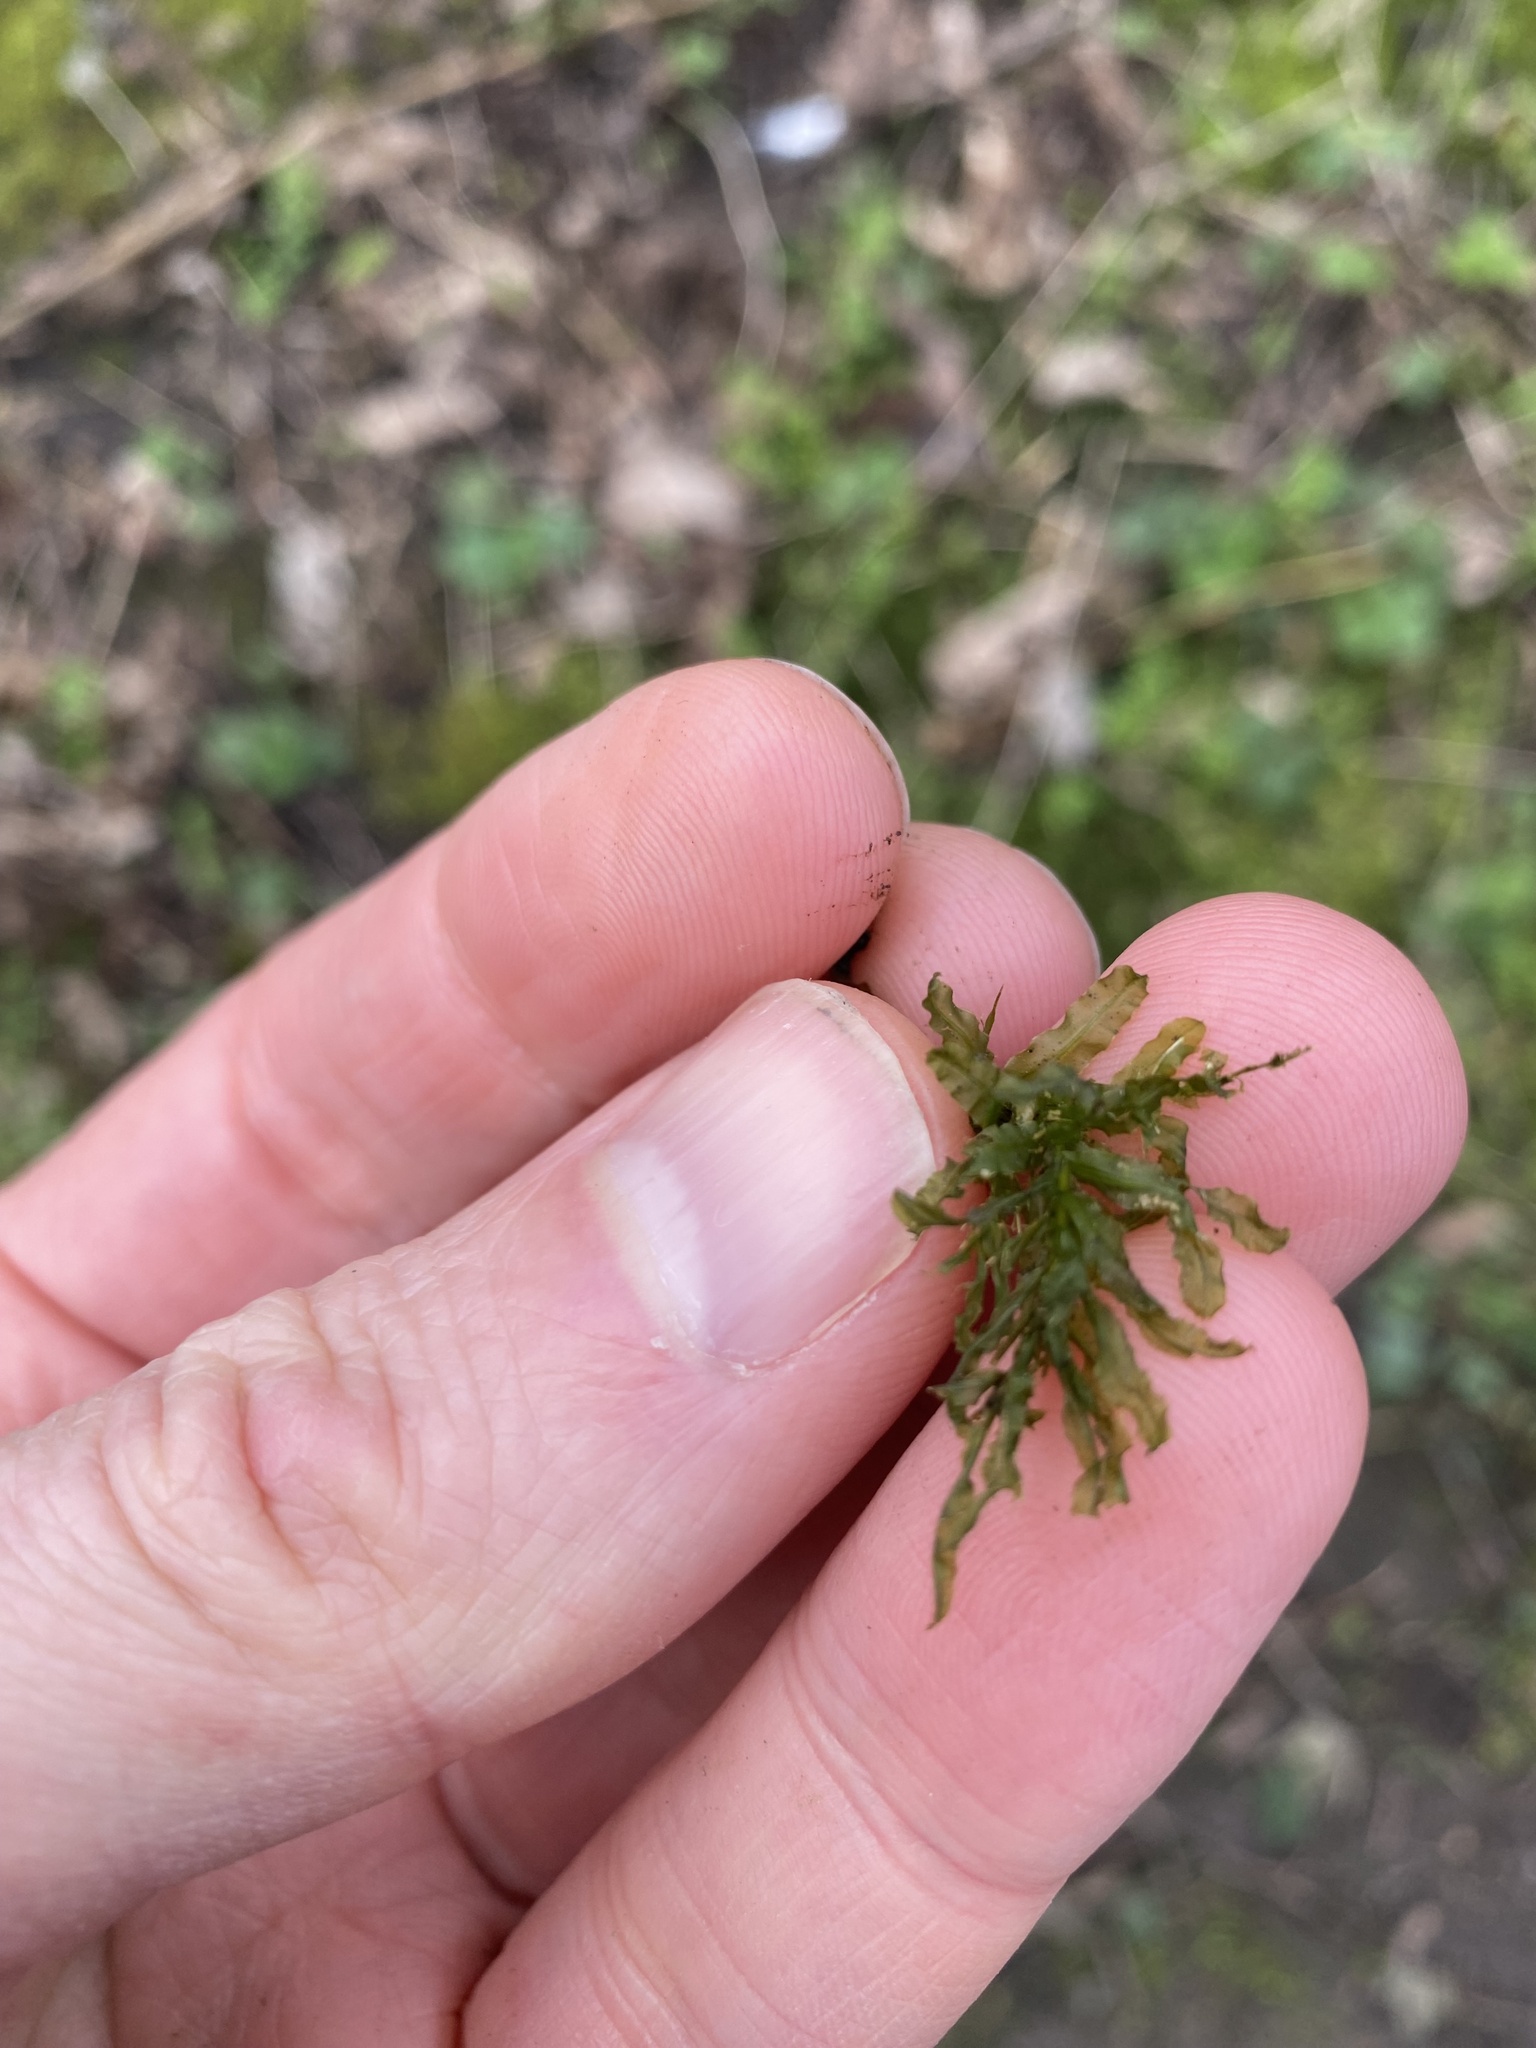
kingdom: Plantae
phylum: Bryophyta
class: Bryopsida
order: Bryales
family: Mniaceae
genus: Plagiomnium
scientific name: Plagiomnium undulatum
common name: Hart's-tongue thyme-moss
